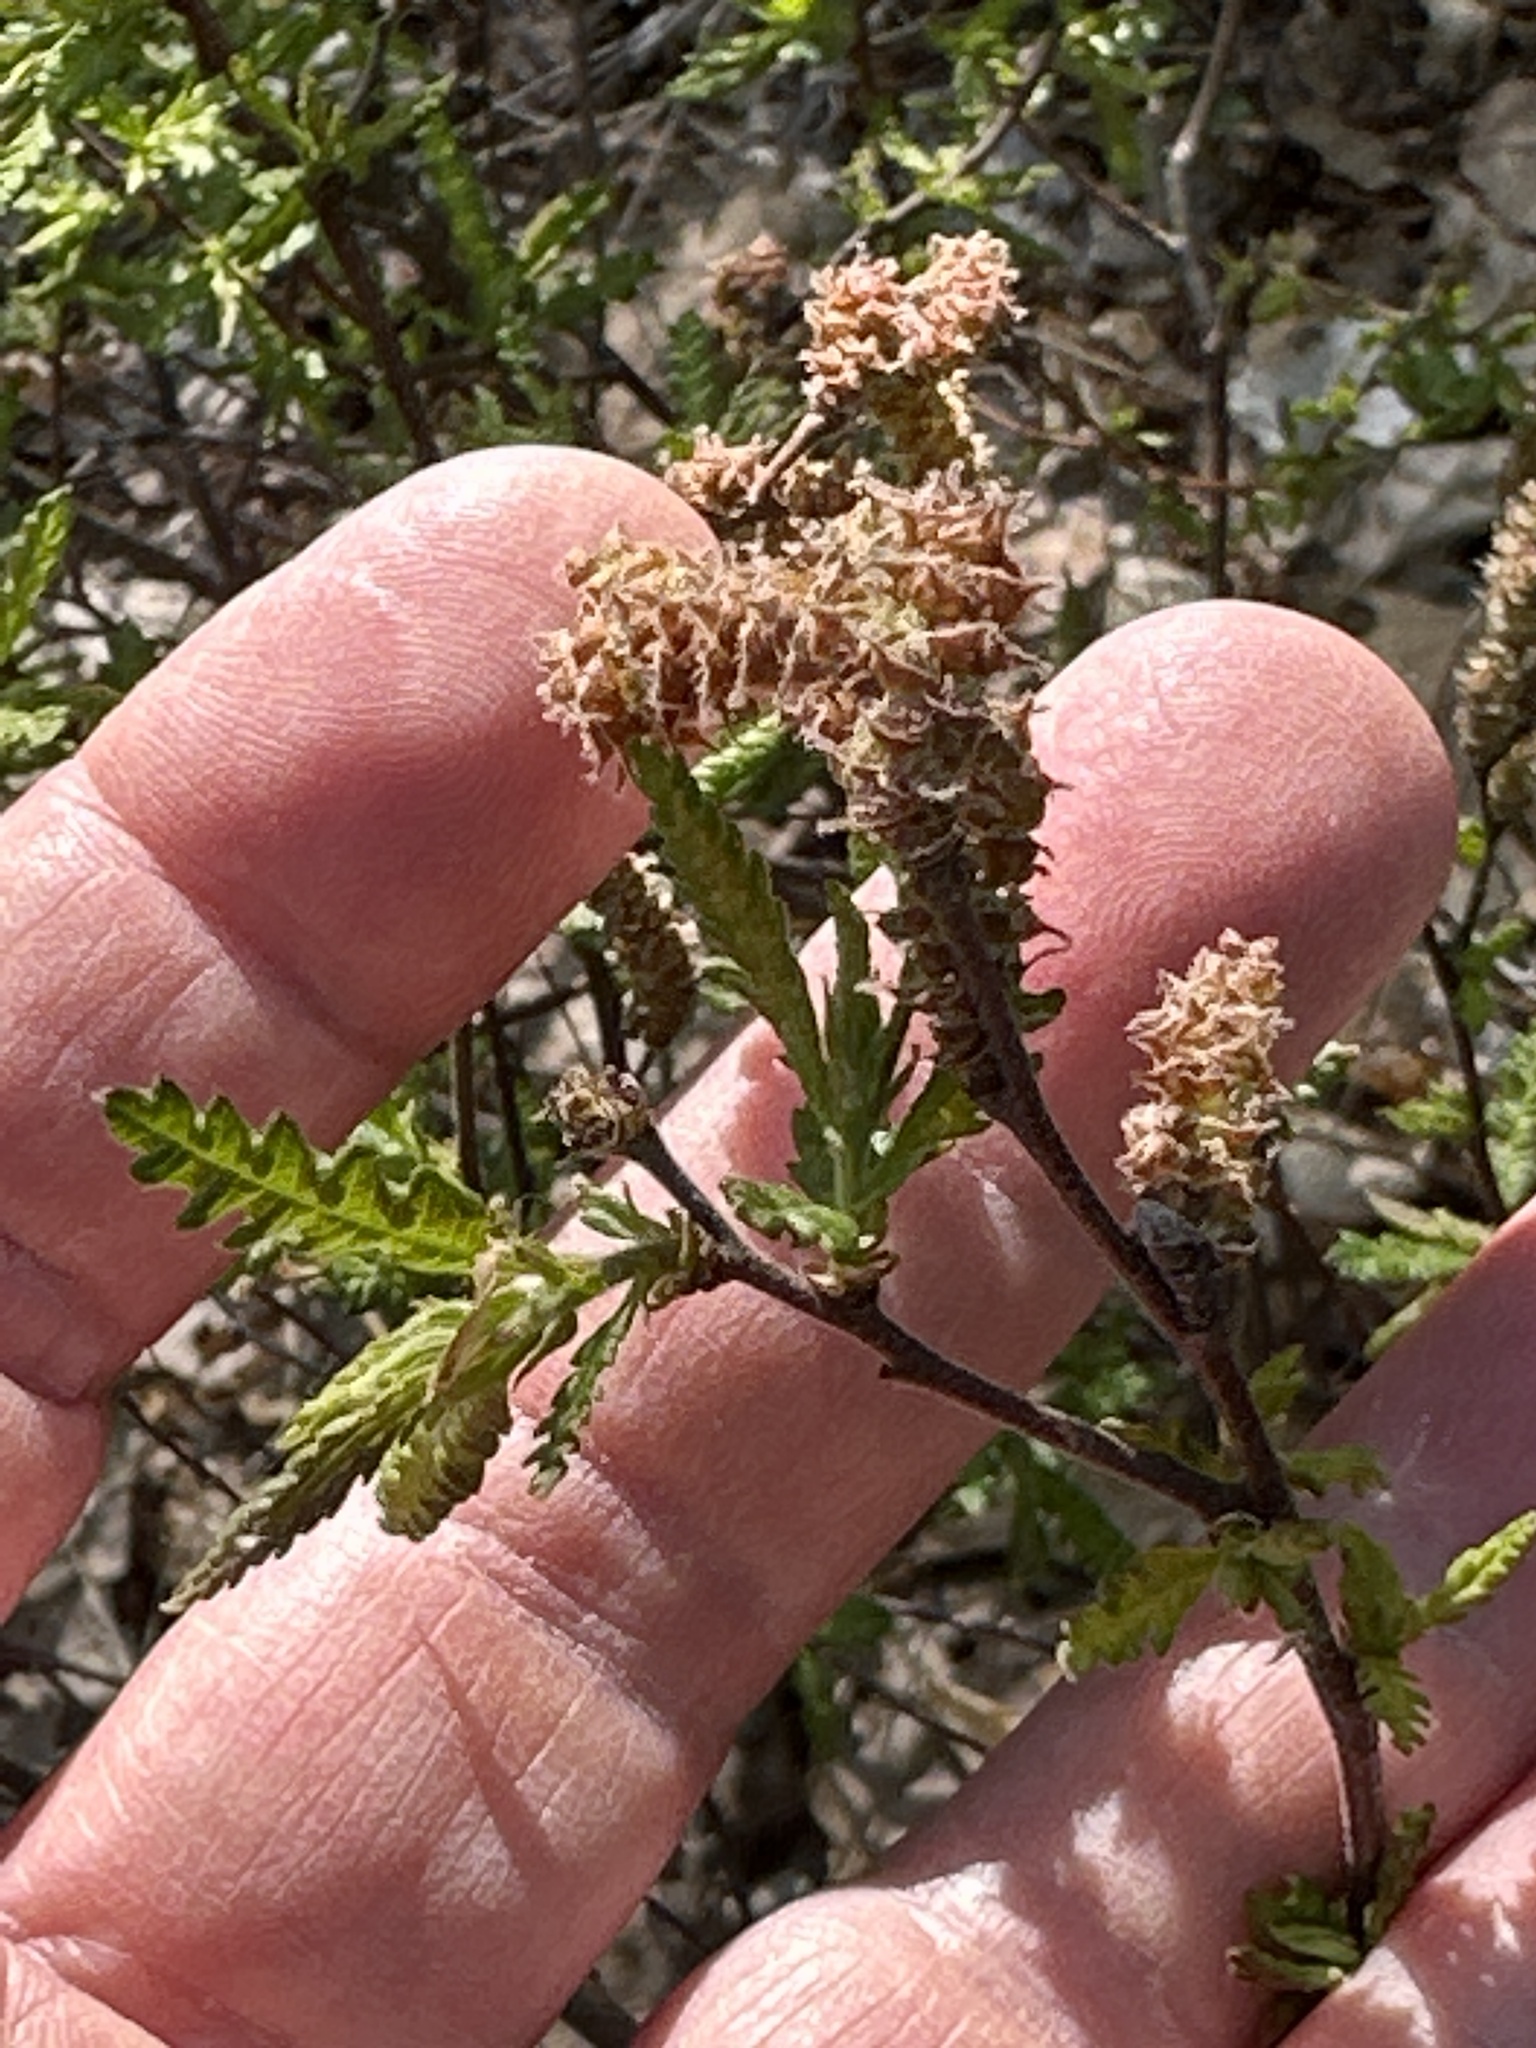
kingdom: Plantae
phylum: Tracheophyta
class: Magnoliopsida
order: Fagales
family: Myricaceae
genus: Comptonia
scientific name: Comptonia peregrina
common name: Sweet-fern
